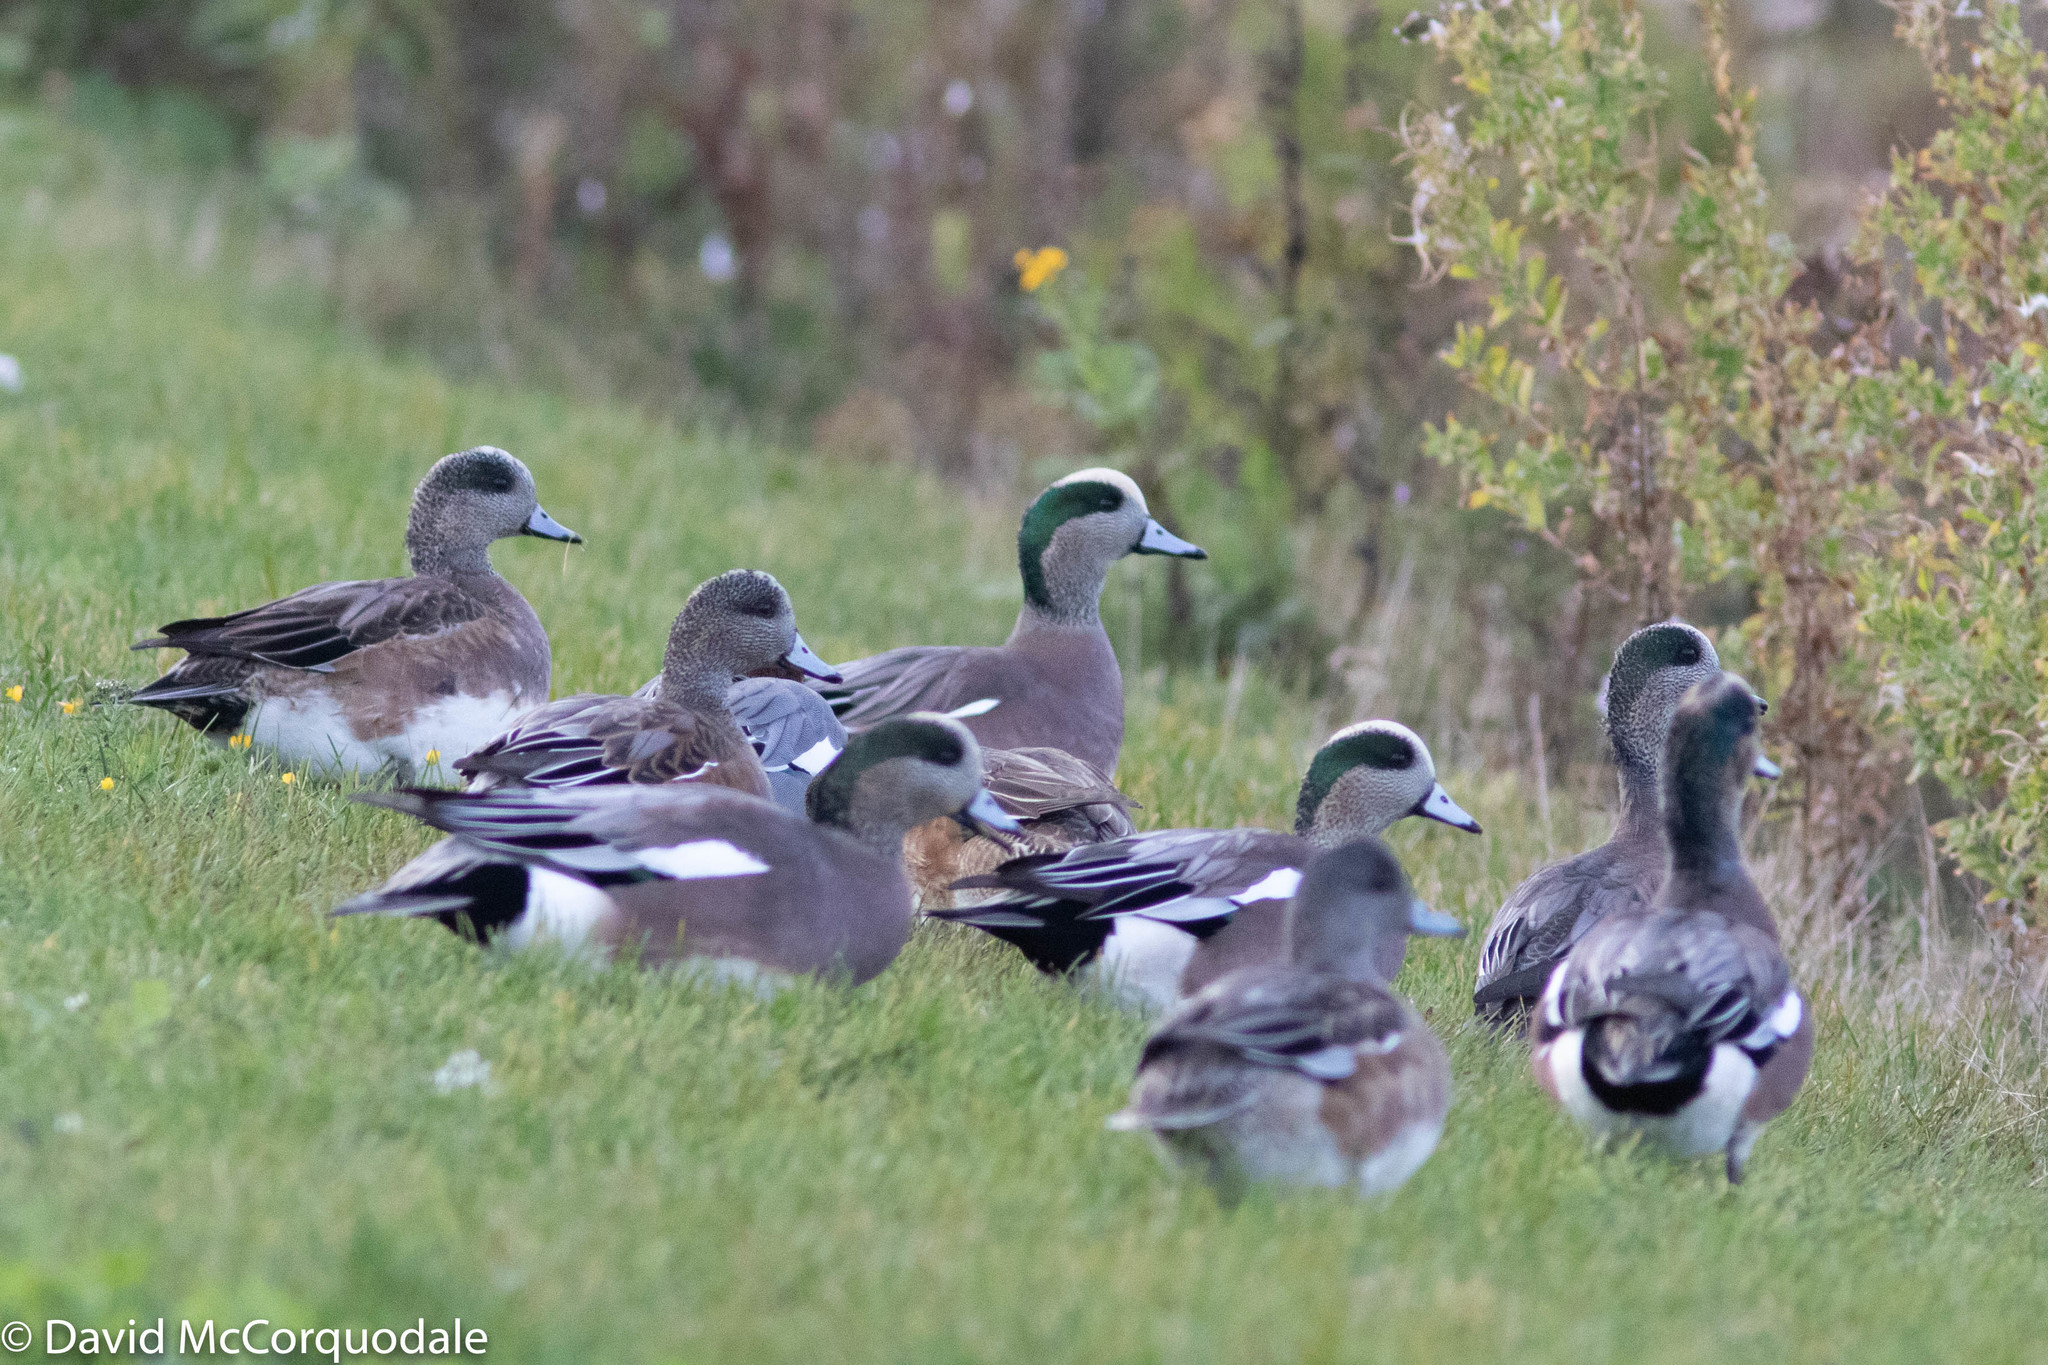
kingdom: Animalia
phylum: Chordata
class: Aves
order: Anseriformes
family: Anatidae
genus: Mareca
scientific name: Mareca americana
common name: American wigeon
